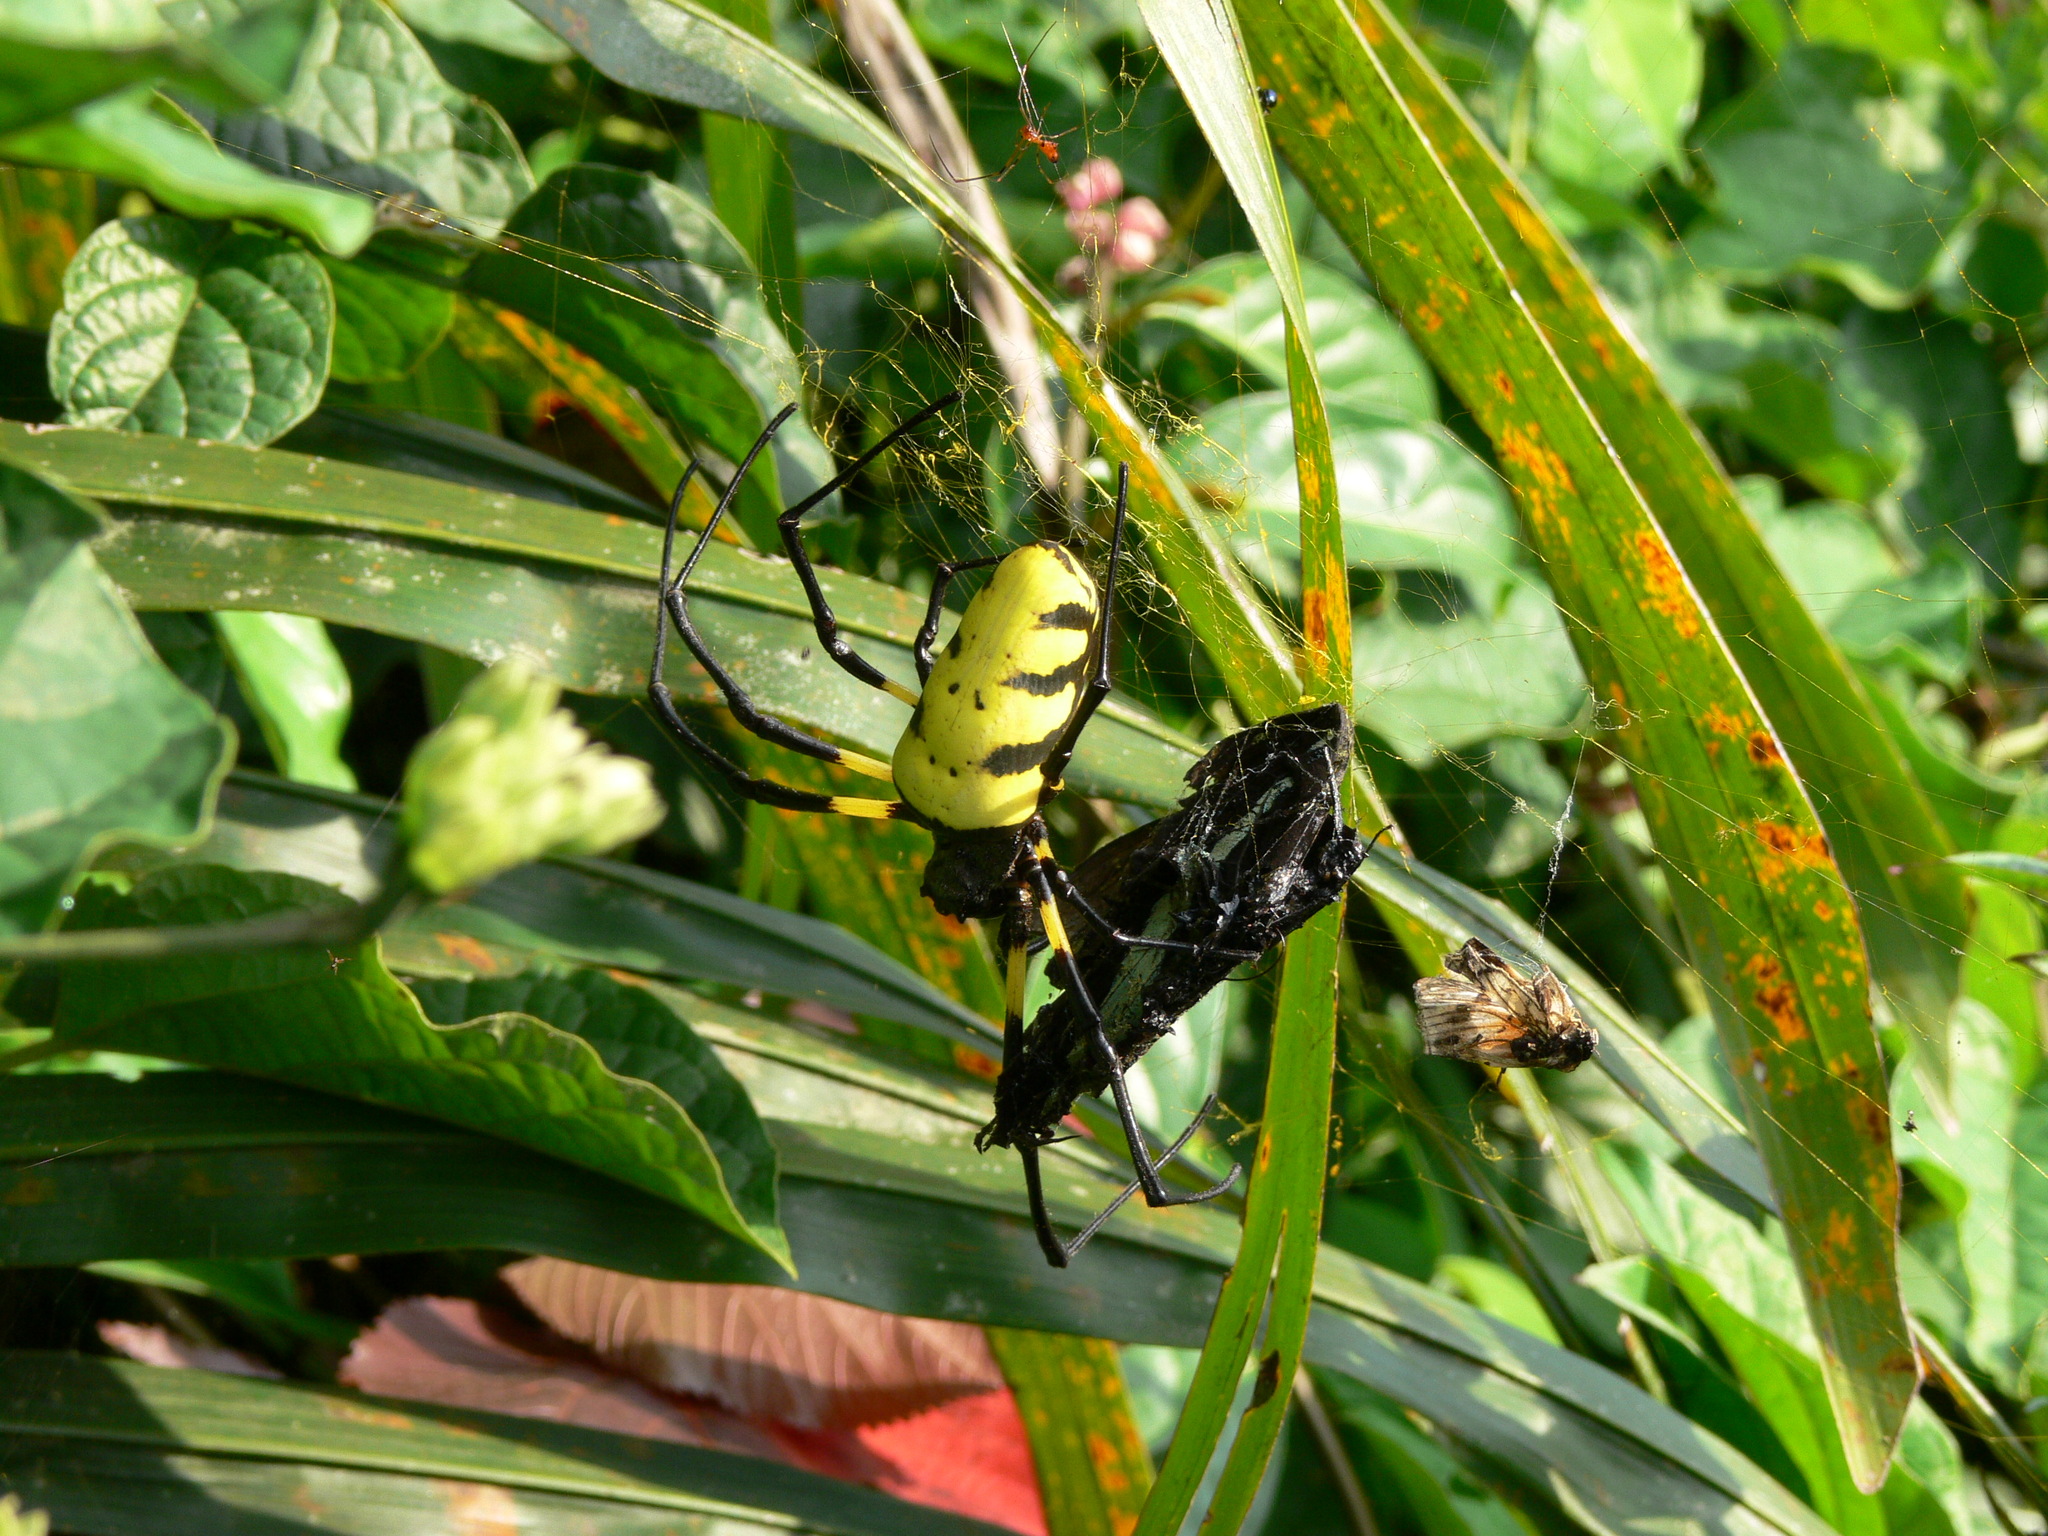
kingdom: Animalia
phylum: Arthropoda
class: Arachnida
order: Araneae
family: Araneidae
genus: Trichonephila
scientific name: Trichonephila turneri
